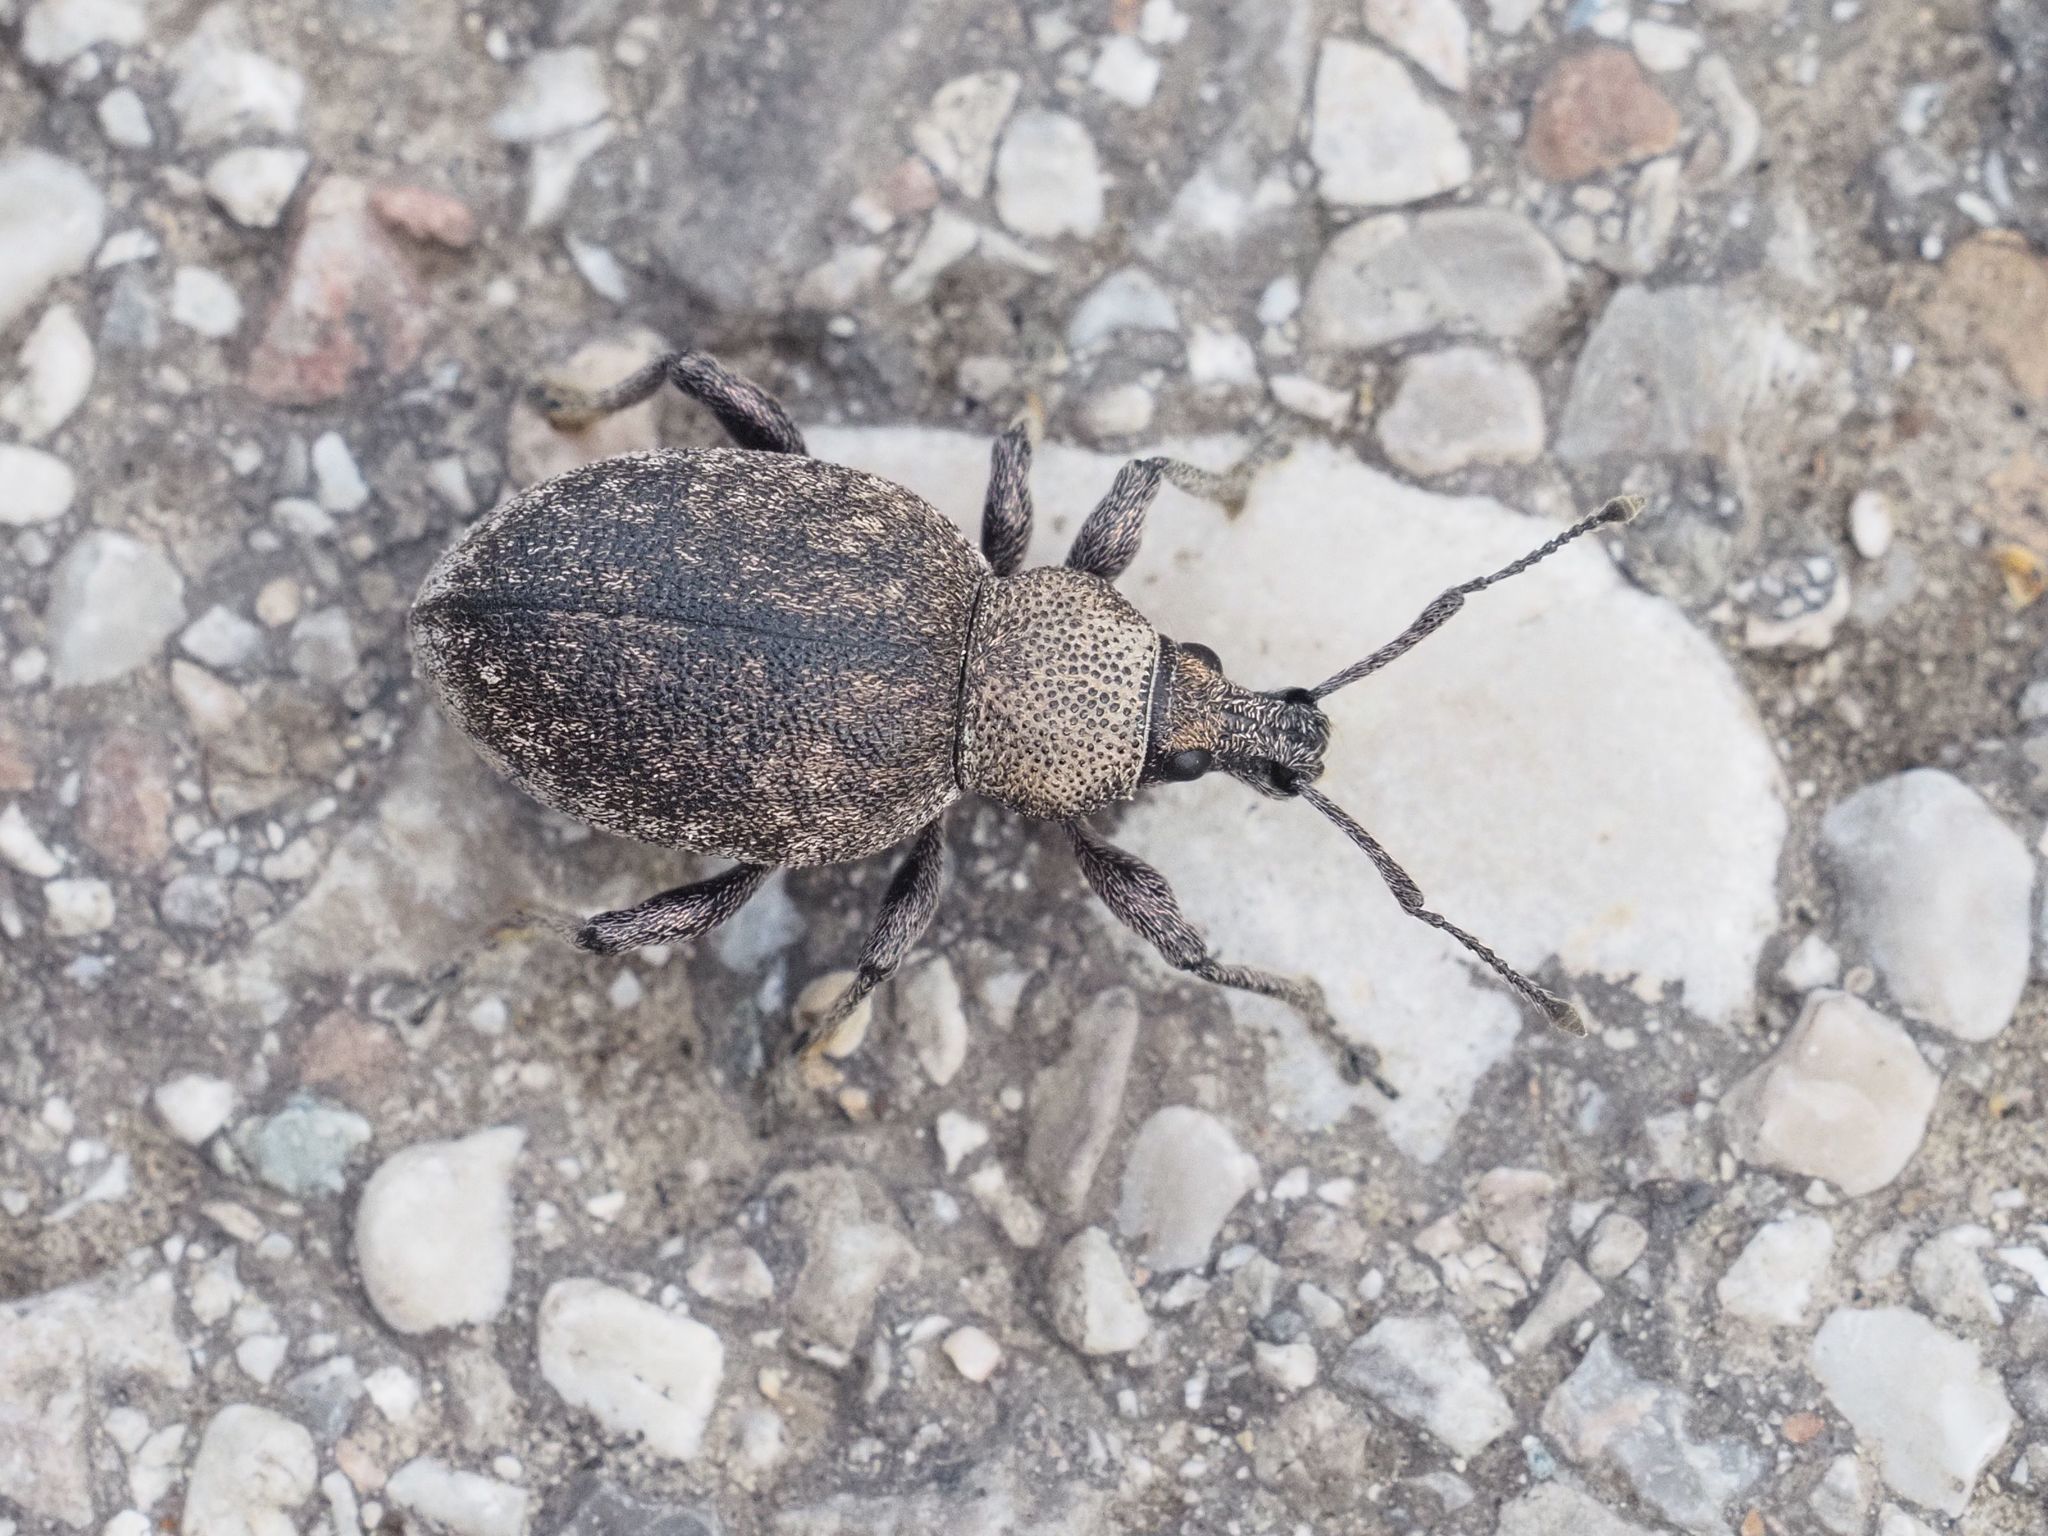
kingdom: Animalia
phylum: Arthropoda
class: Insecta
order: Coleoptera
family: Curculionidae
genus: Otiorhynchus
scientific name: Otiorhynchus ligustici
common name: Weevil
